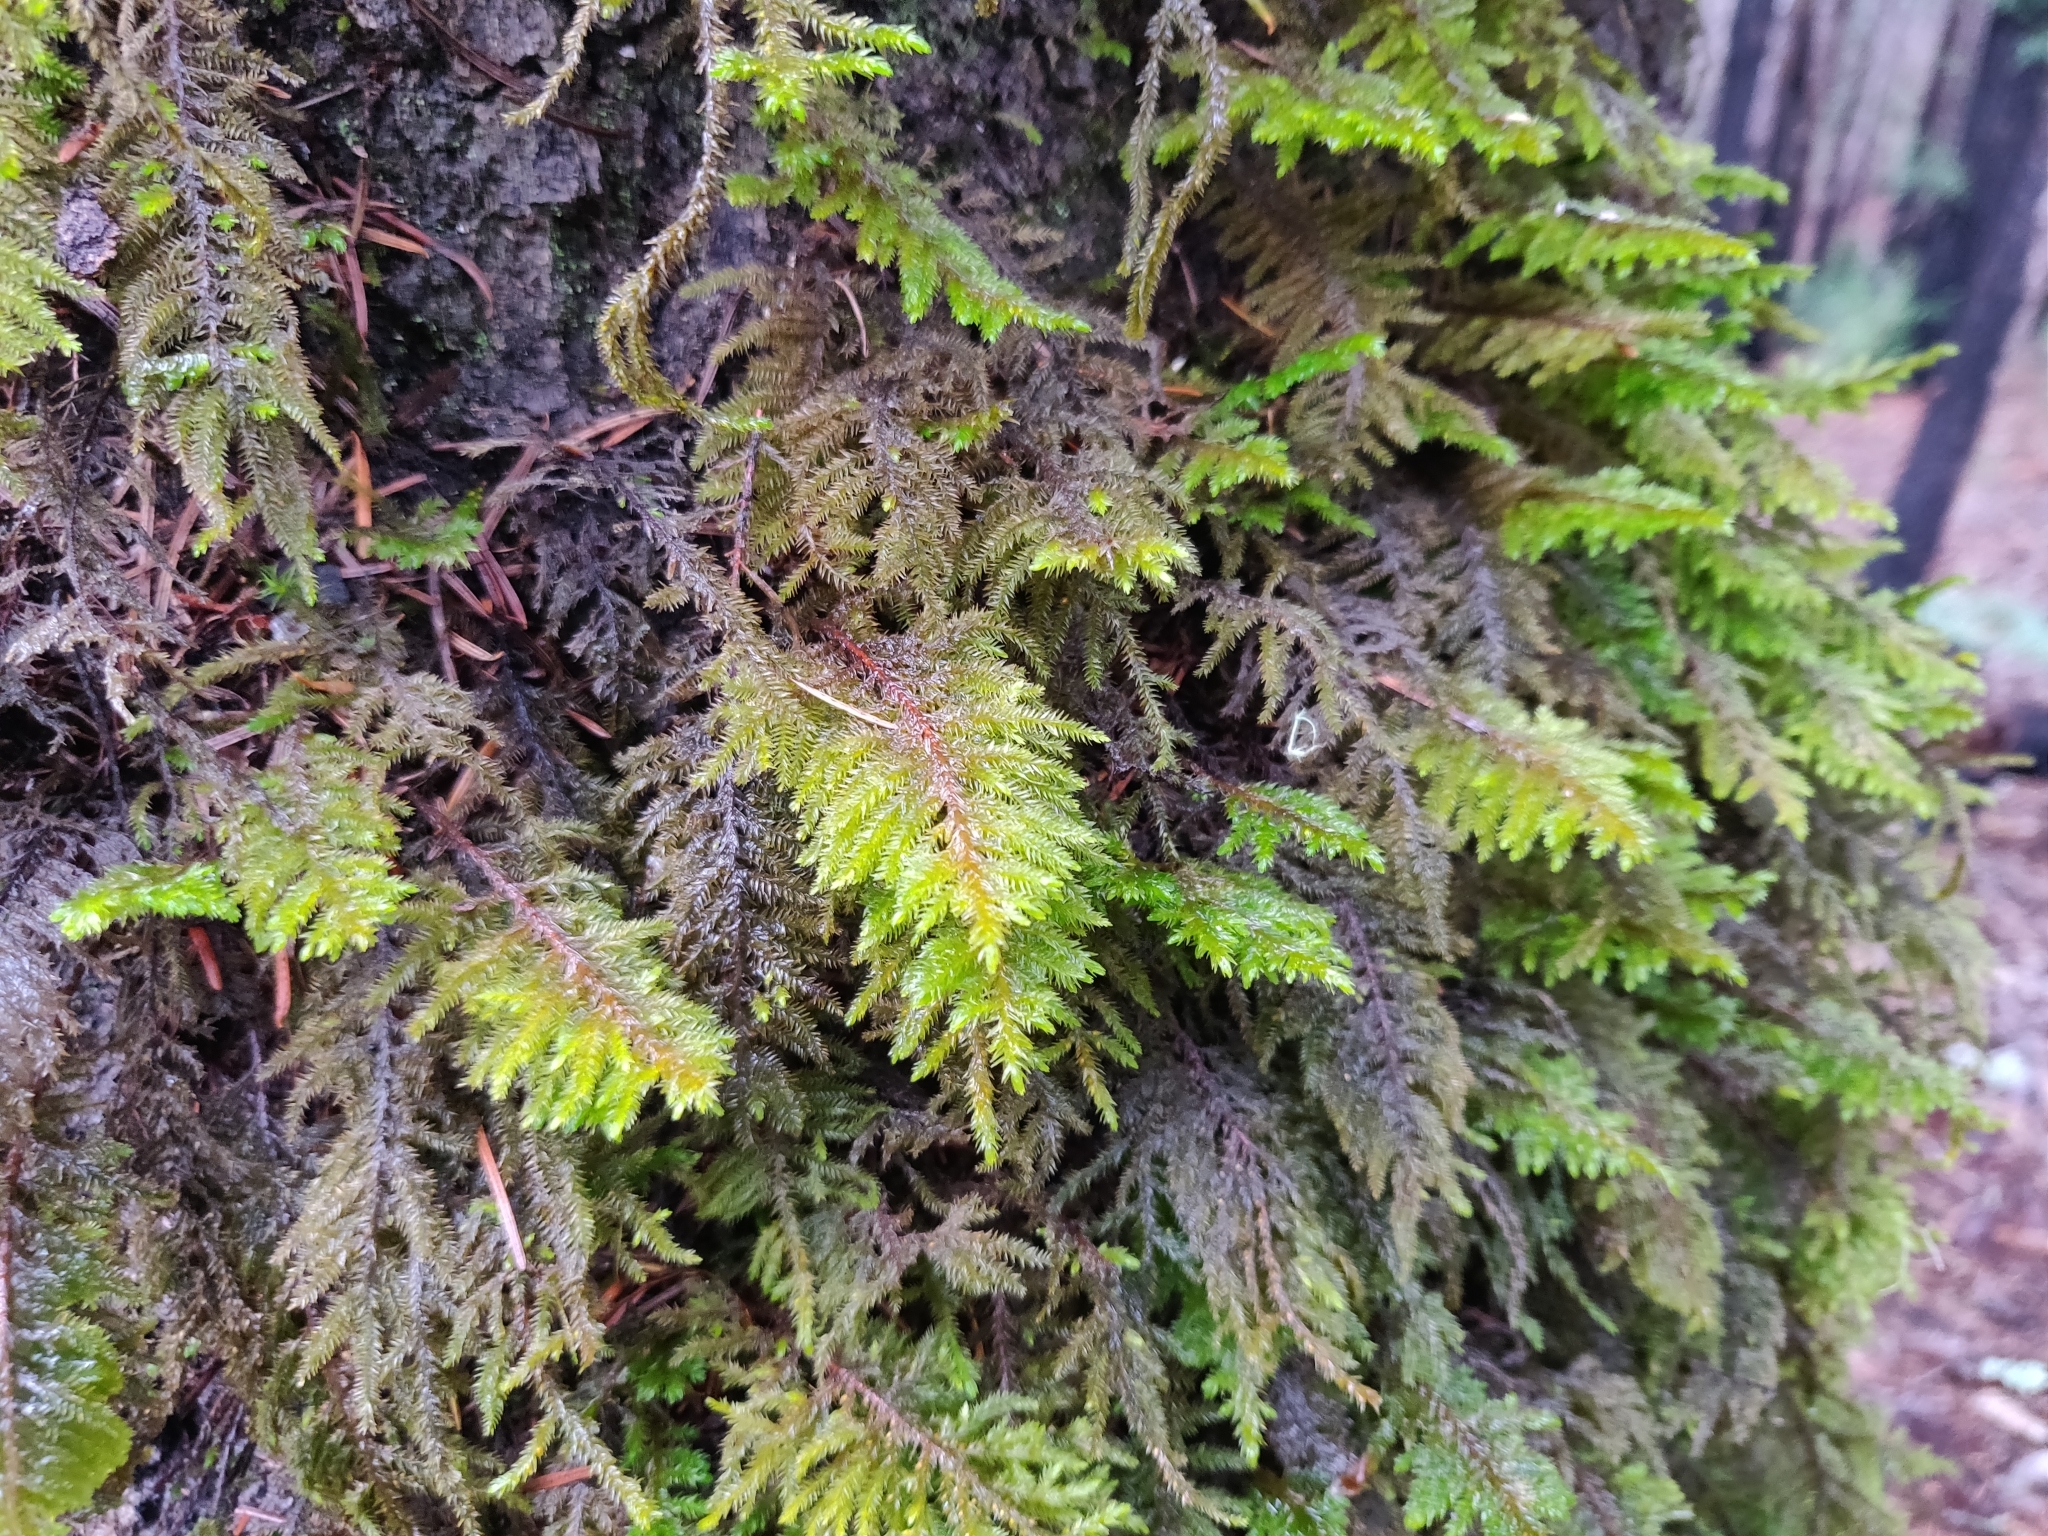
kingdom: Plantae
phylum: Bryophyta
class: Bryopsida
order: Hypnales
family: Cryphaeaceae
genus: Dendroalsia
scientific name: Dendroalsia abietina
